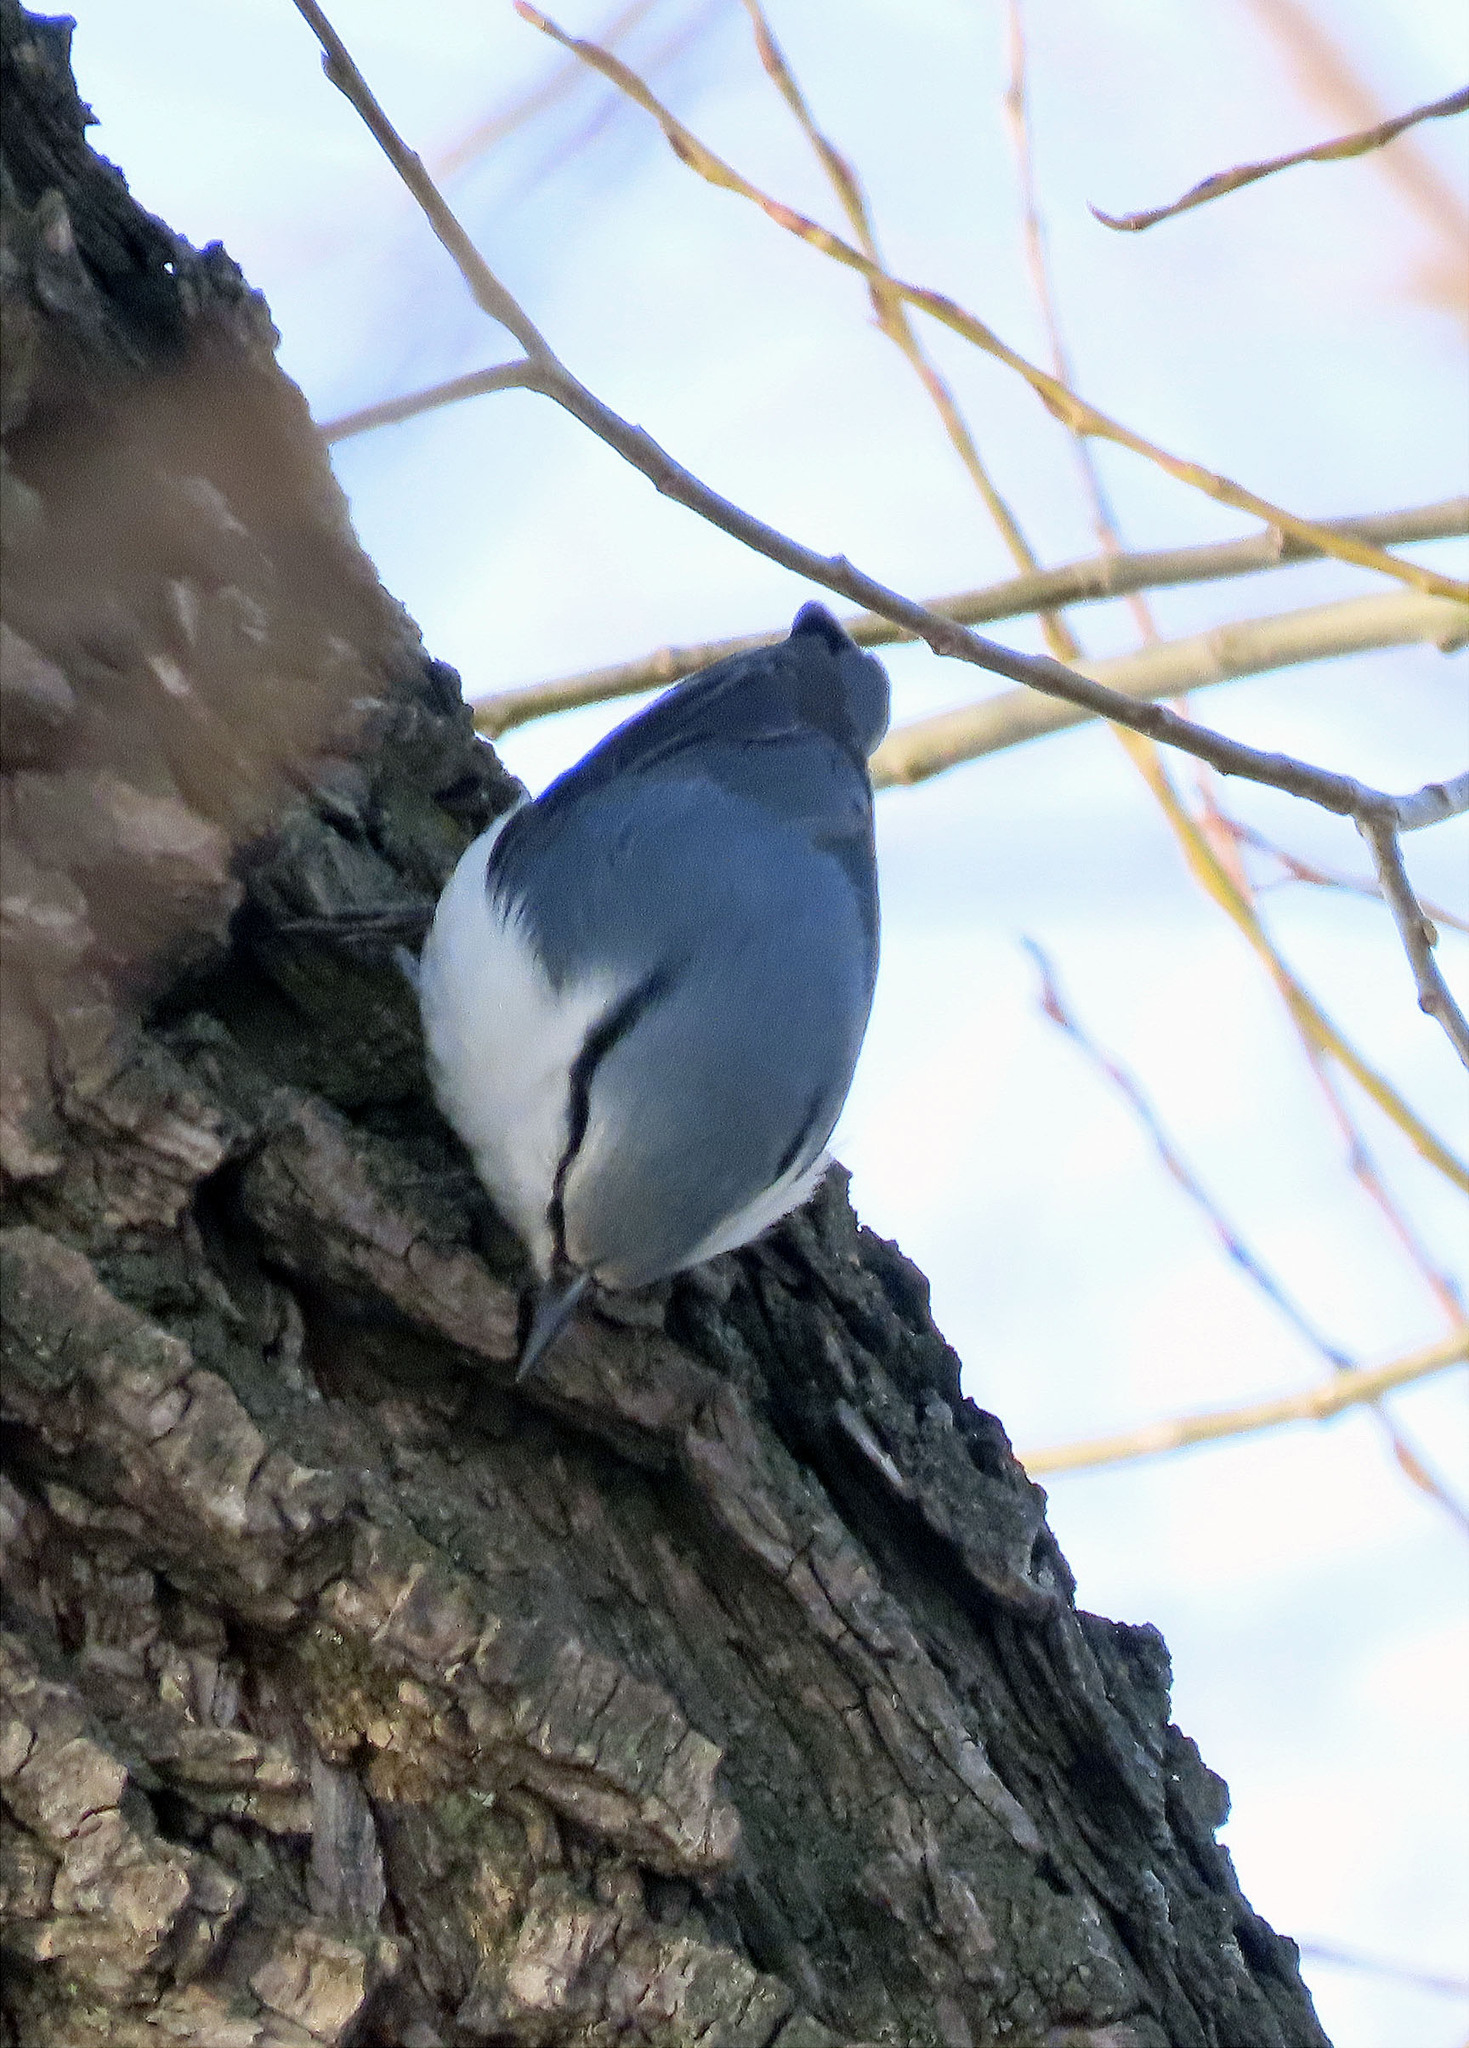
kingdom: Animalia
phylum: Chordata
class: Aves
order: Passeriformes
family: Sittidae
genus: Sitta
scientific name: Sitta europaea
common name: Eurasian nuthatch
